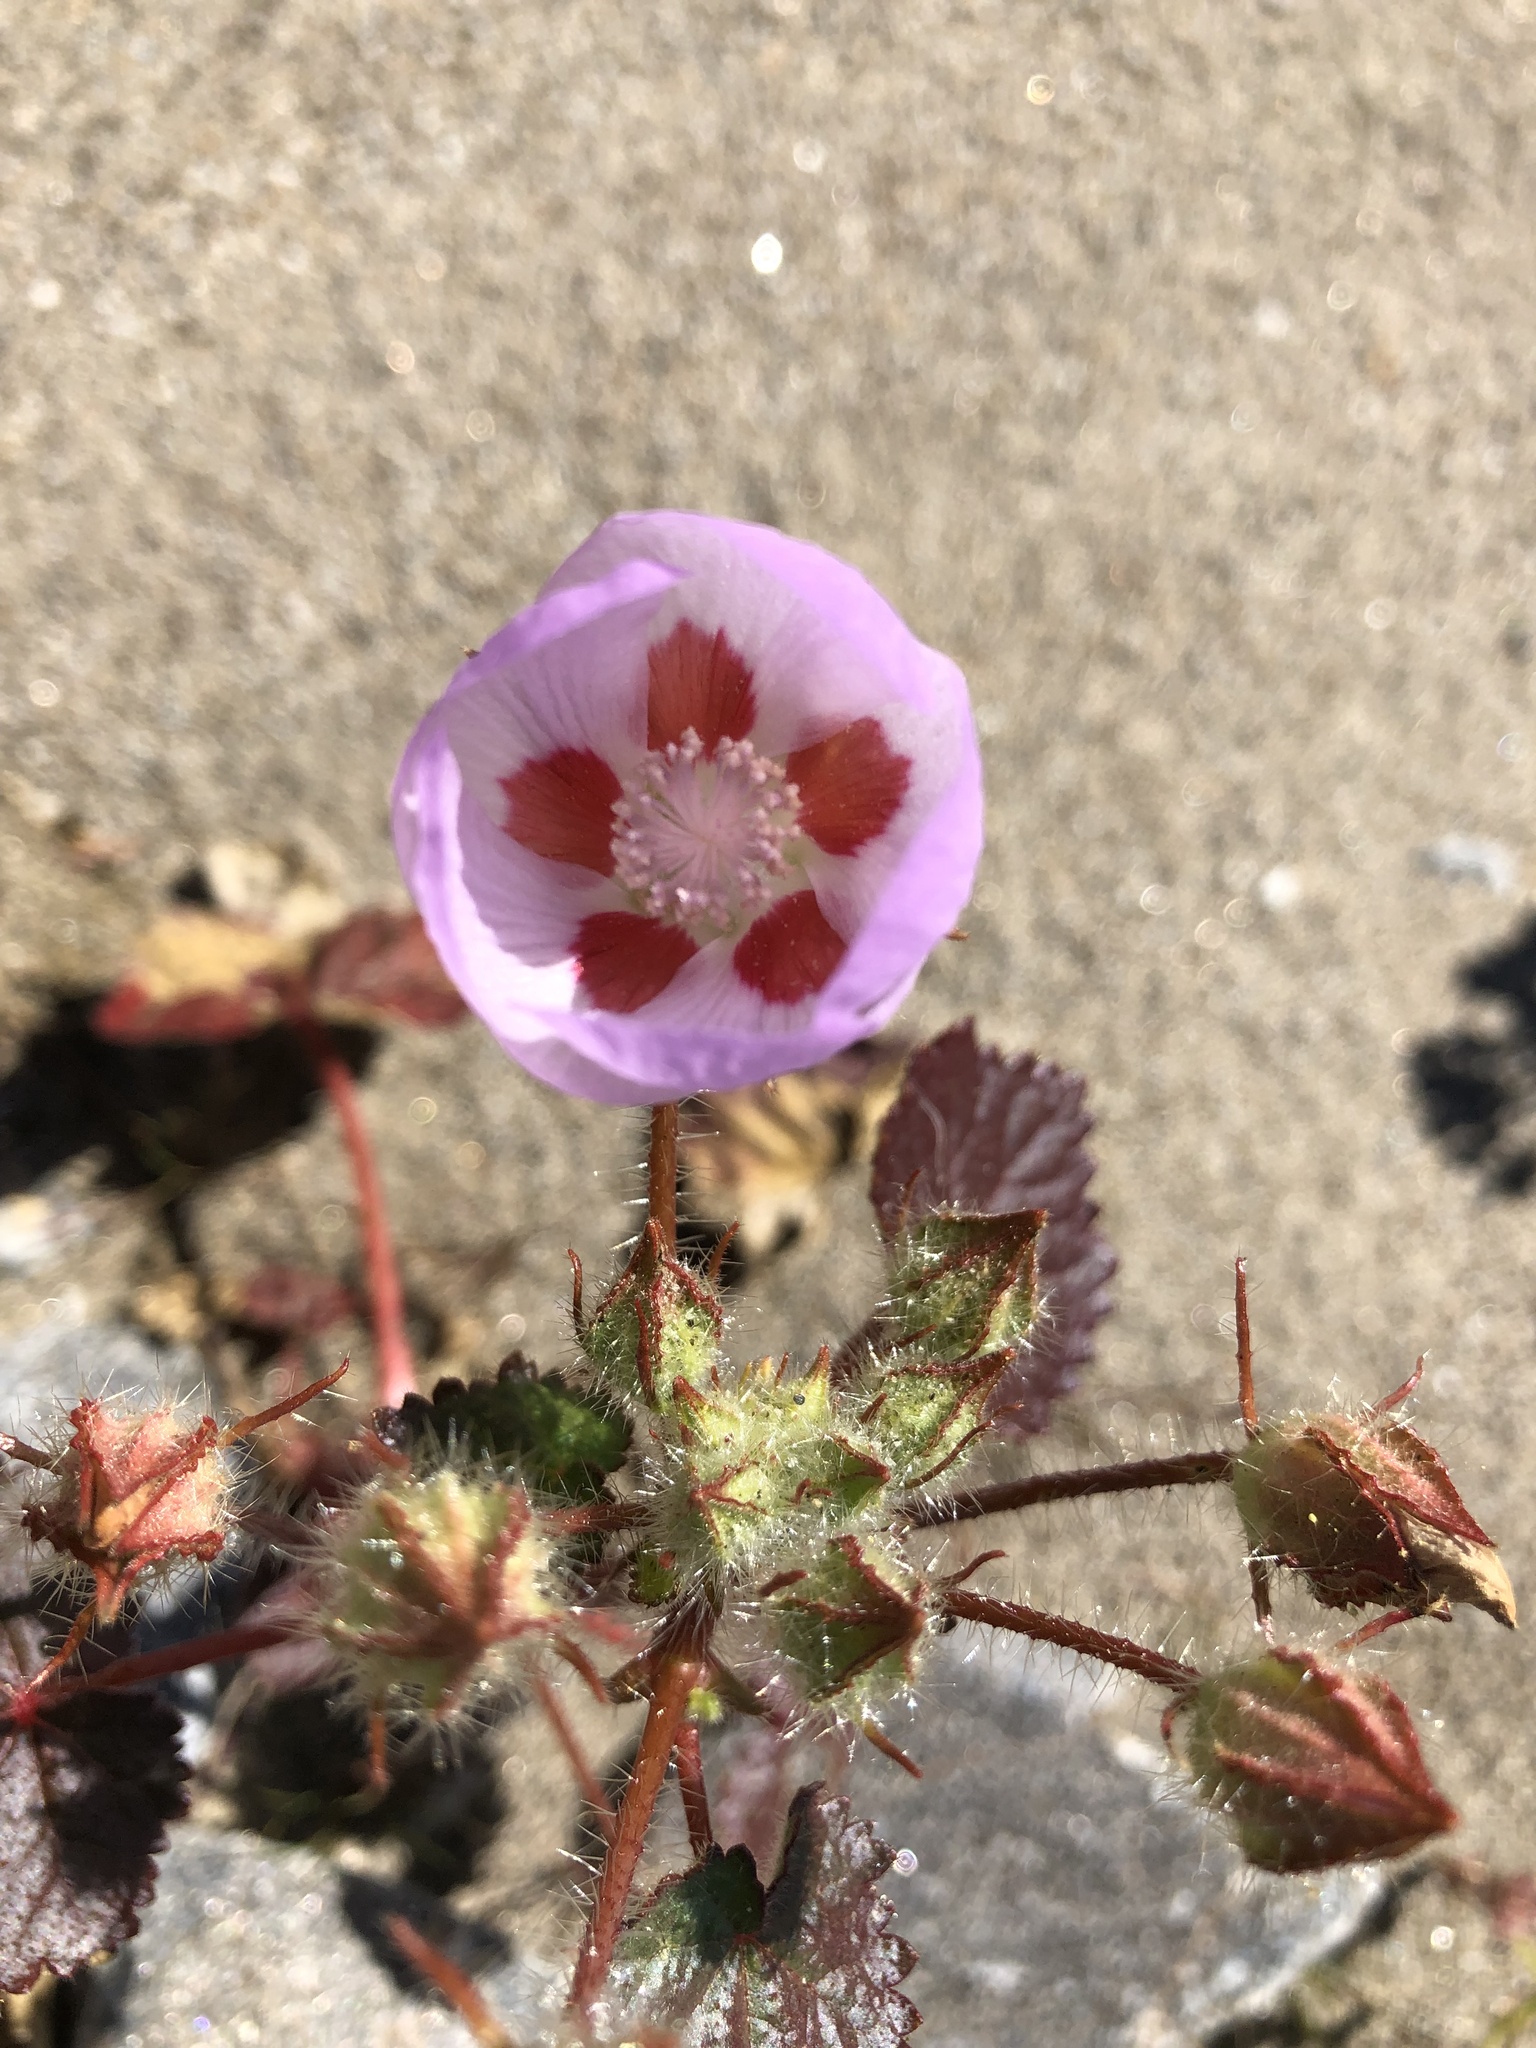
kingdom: Plantae
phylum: Tracheophyta
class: Magnoliopsida
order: Malvales
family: Malvaceae
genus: Eremalche
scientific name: Eremalche rotundifolia
